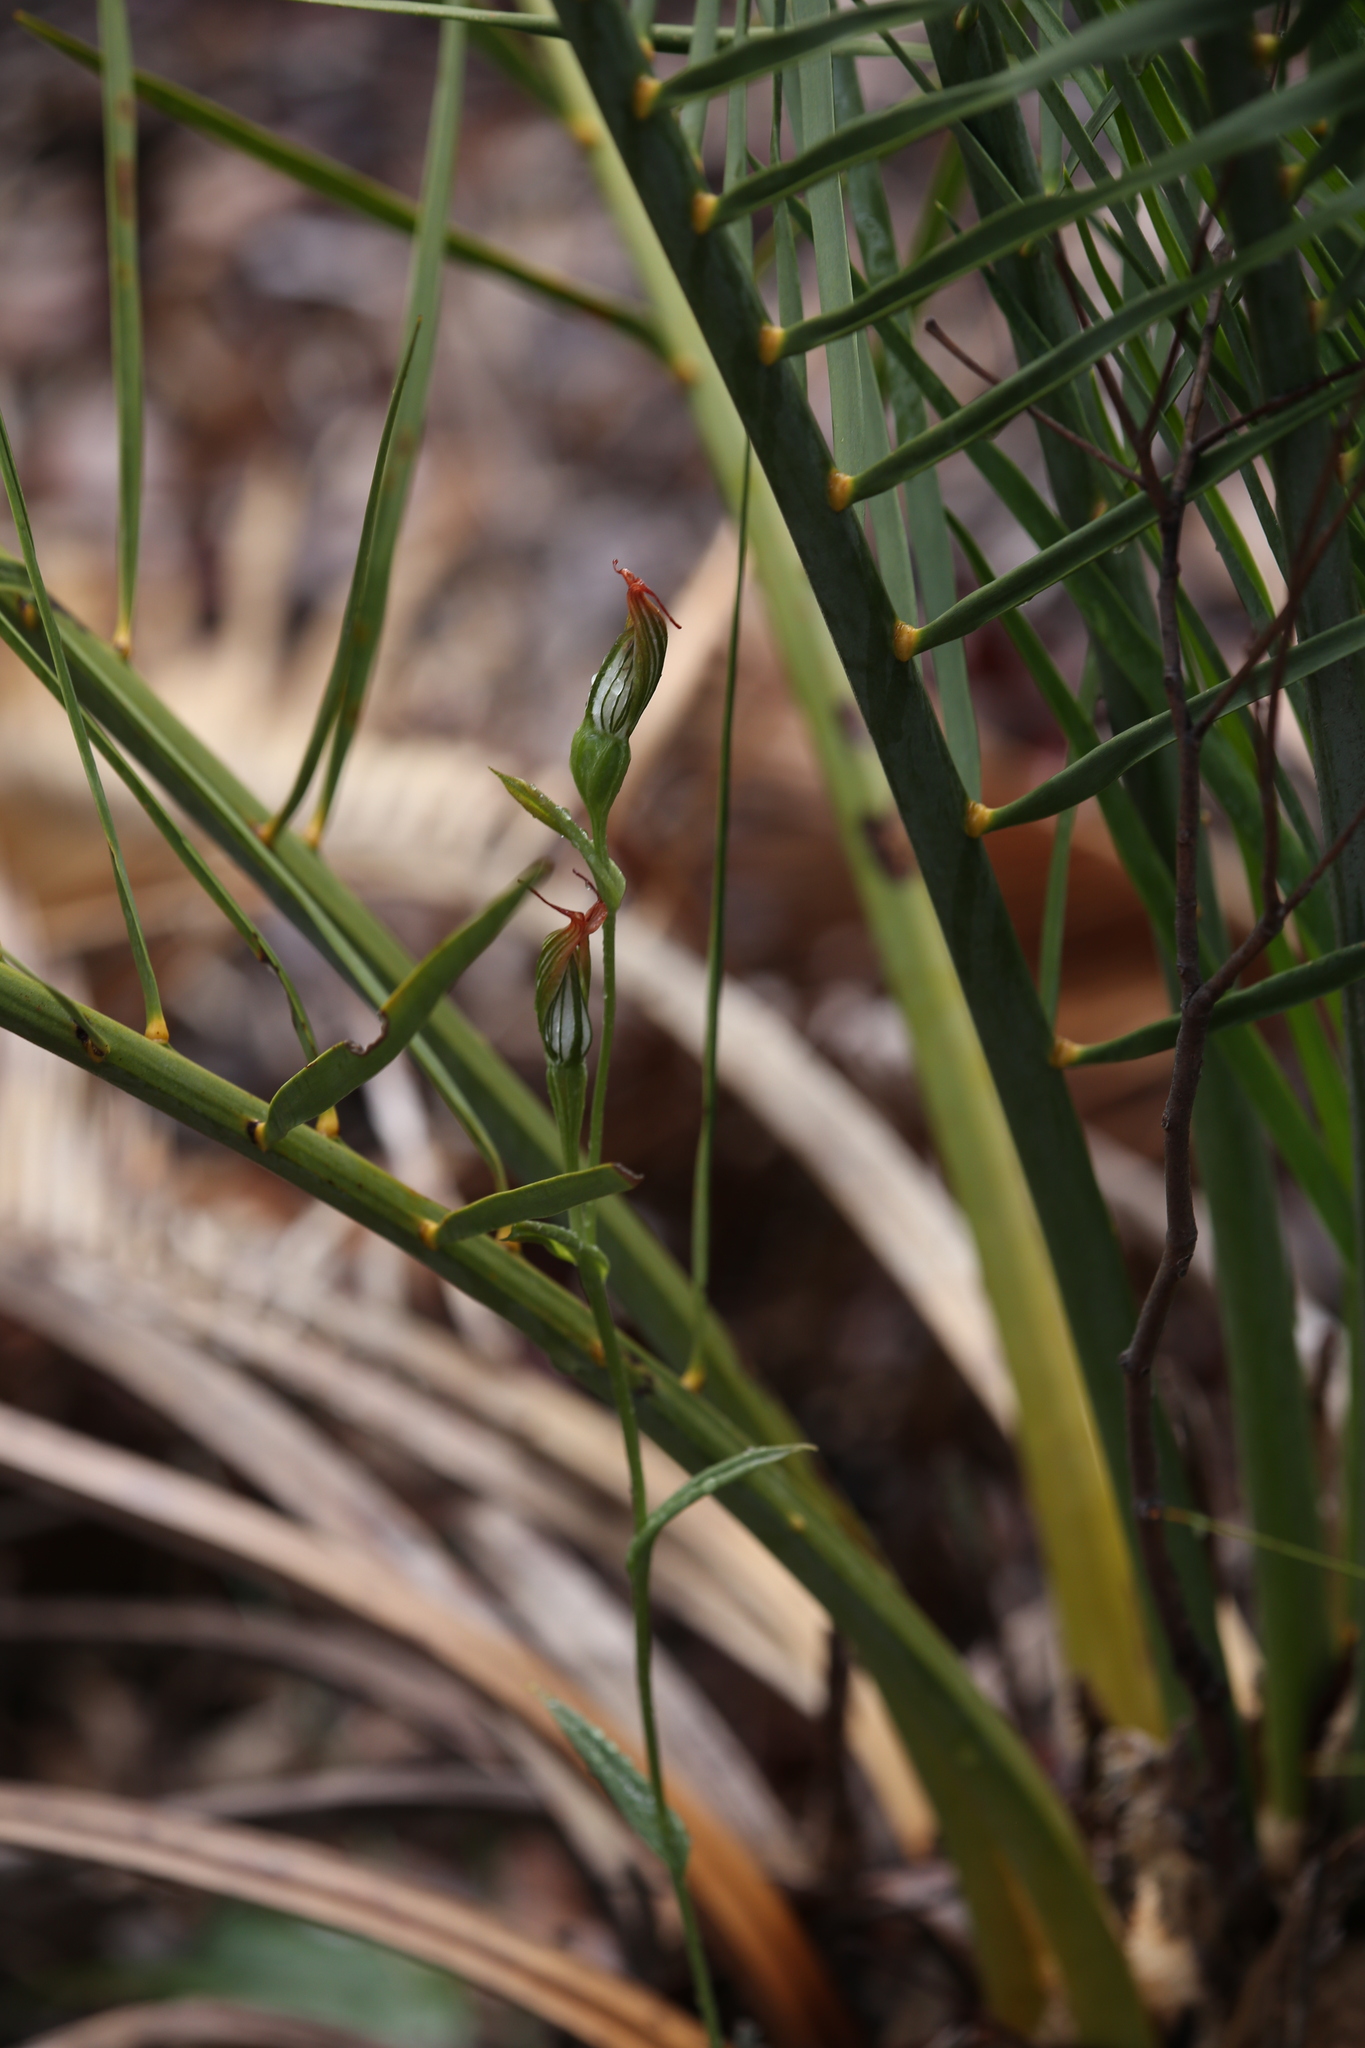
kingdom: Plantae
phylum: Tracheophyta
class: Liliopsida
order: Asparagales
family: Orchidaceae
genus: Pterostylis
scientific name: Pterostylis recurva
